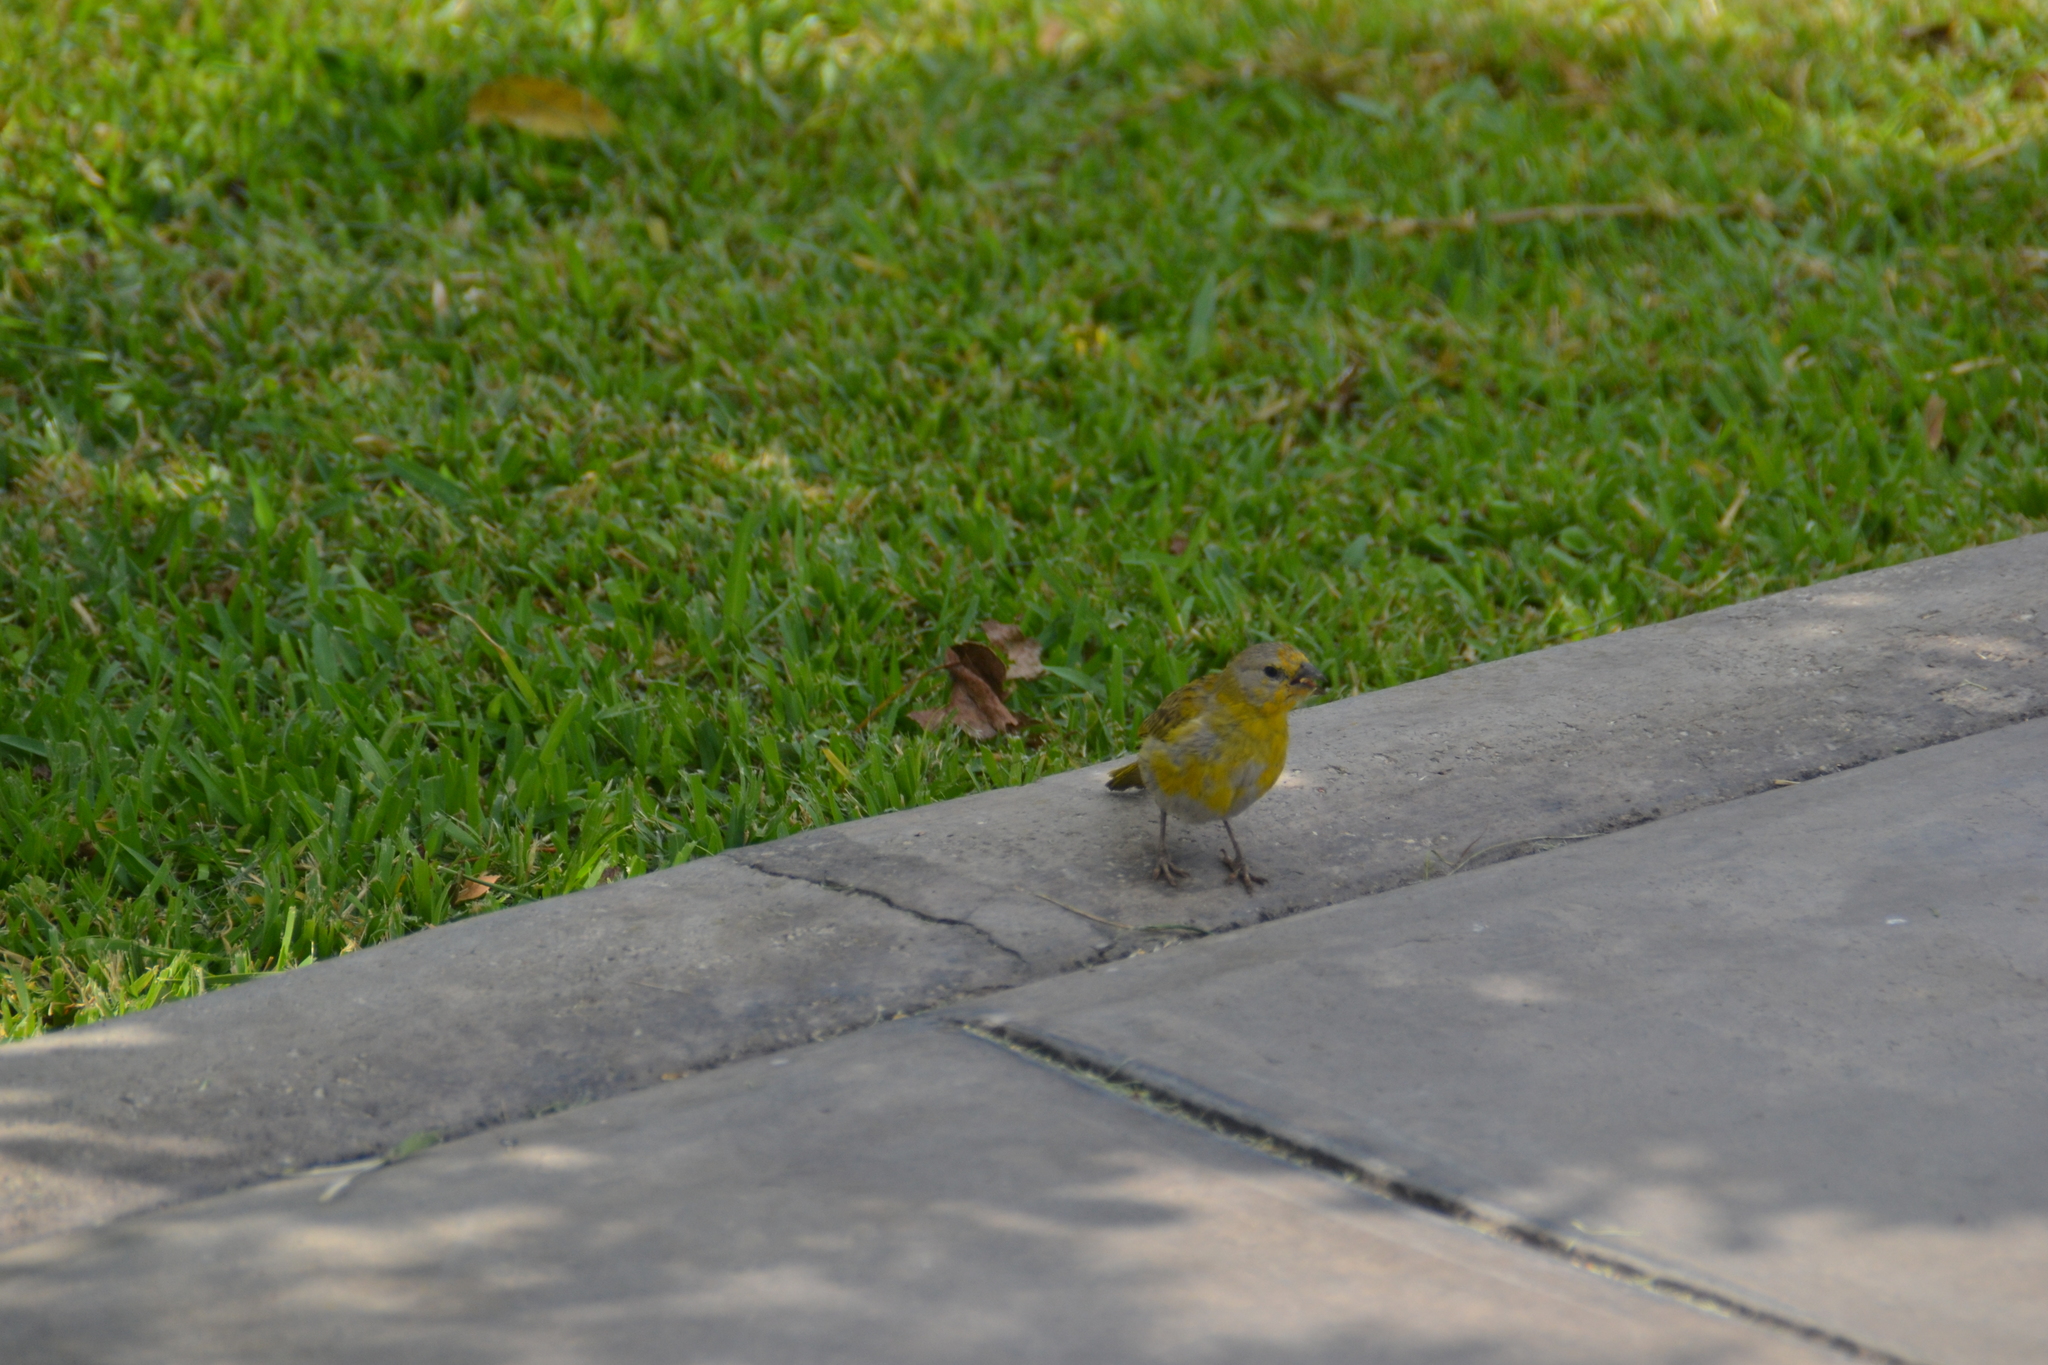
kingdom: Animalia
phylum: Chordata
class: Aves
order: Passeriformes
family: Thraupidae
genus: Sicalis
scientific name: Sicalis flaveola
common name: Saffron finch
